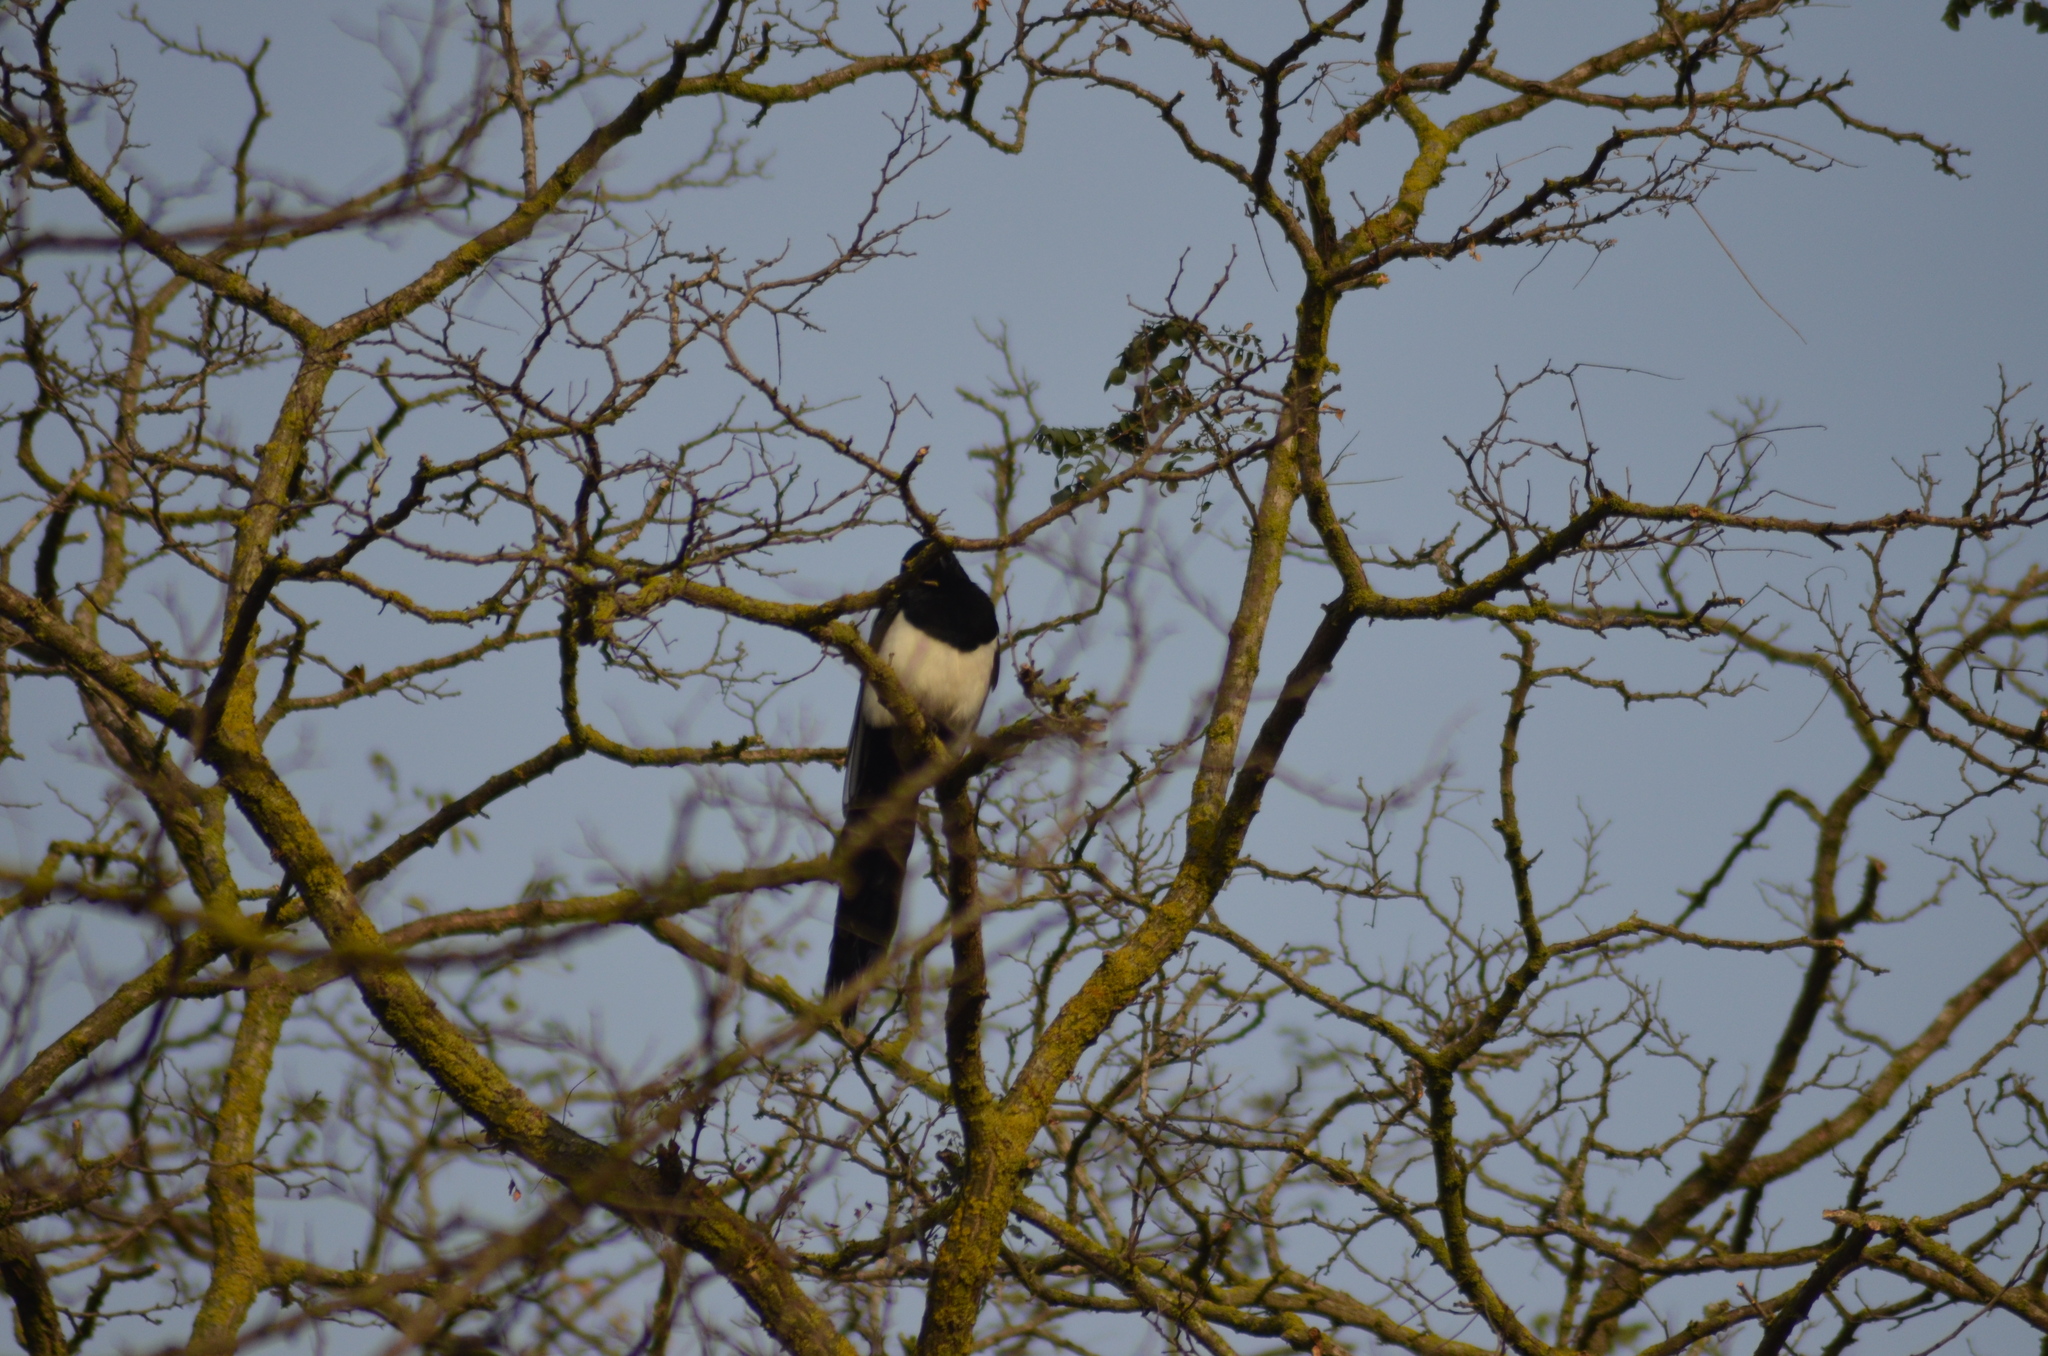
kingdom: Animalia
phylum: Chordata
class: Aves
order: Passeriformes
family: Corvidae
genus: Pica
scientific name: Pica pica
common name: Eurasian magpie
